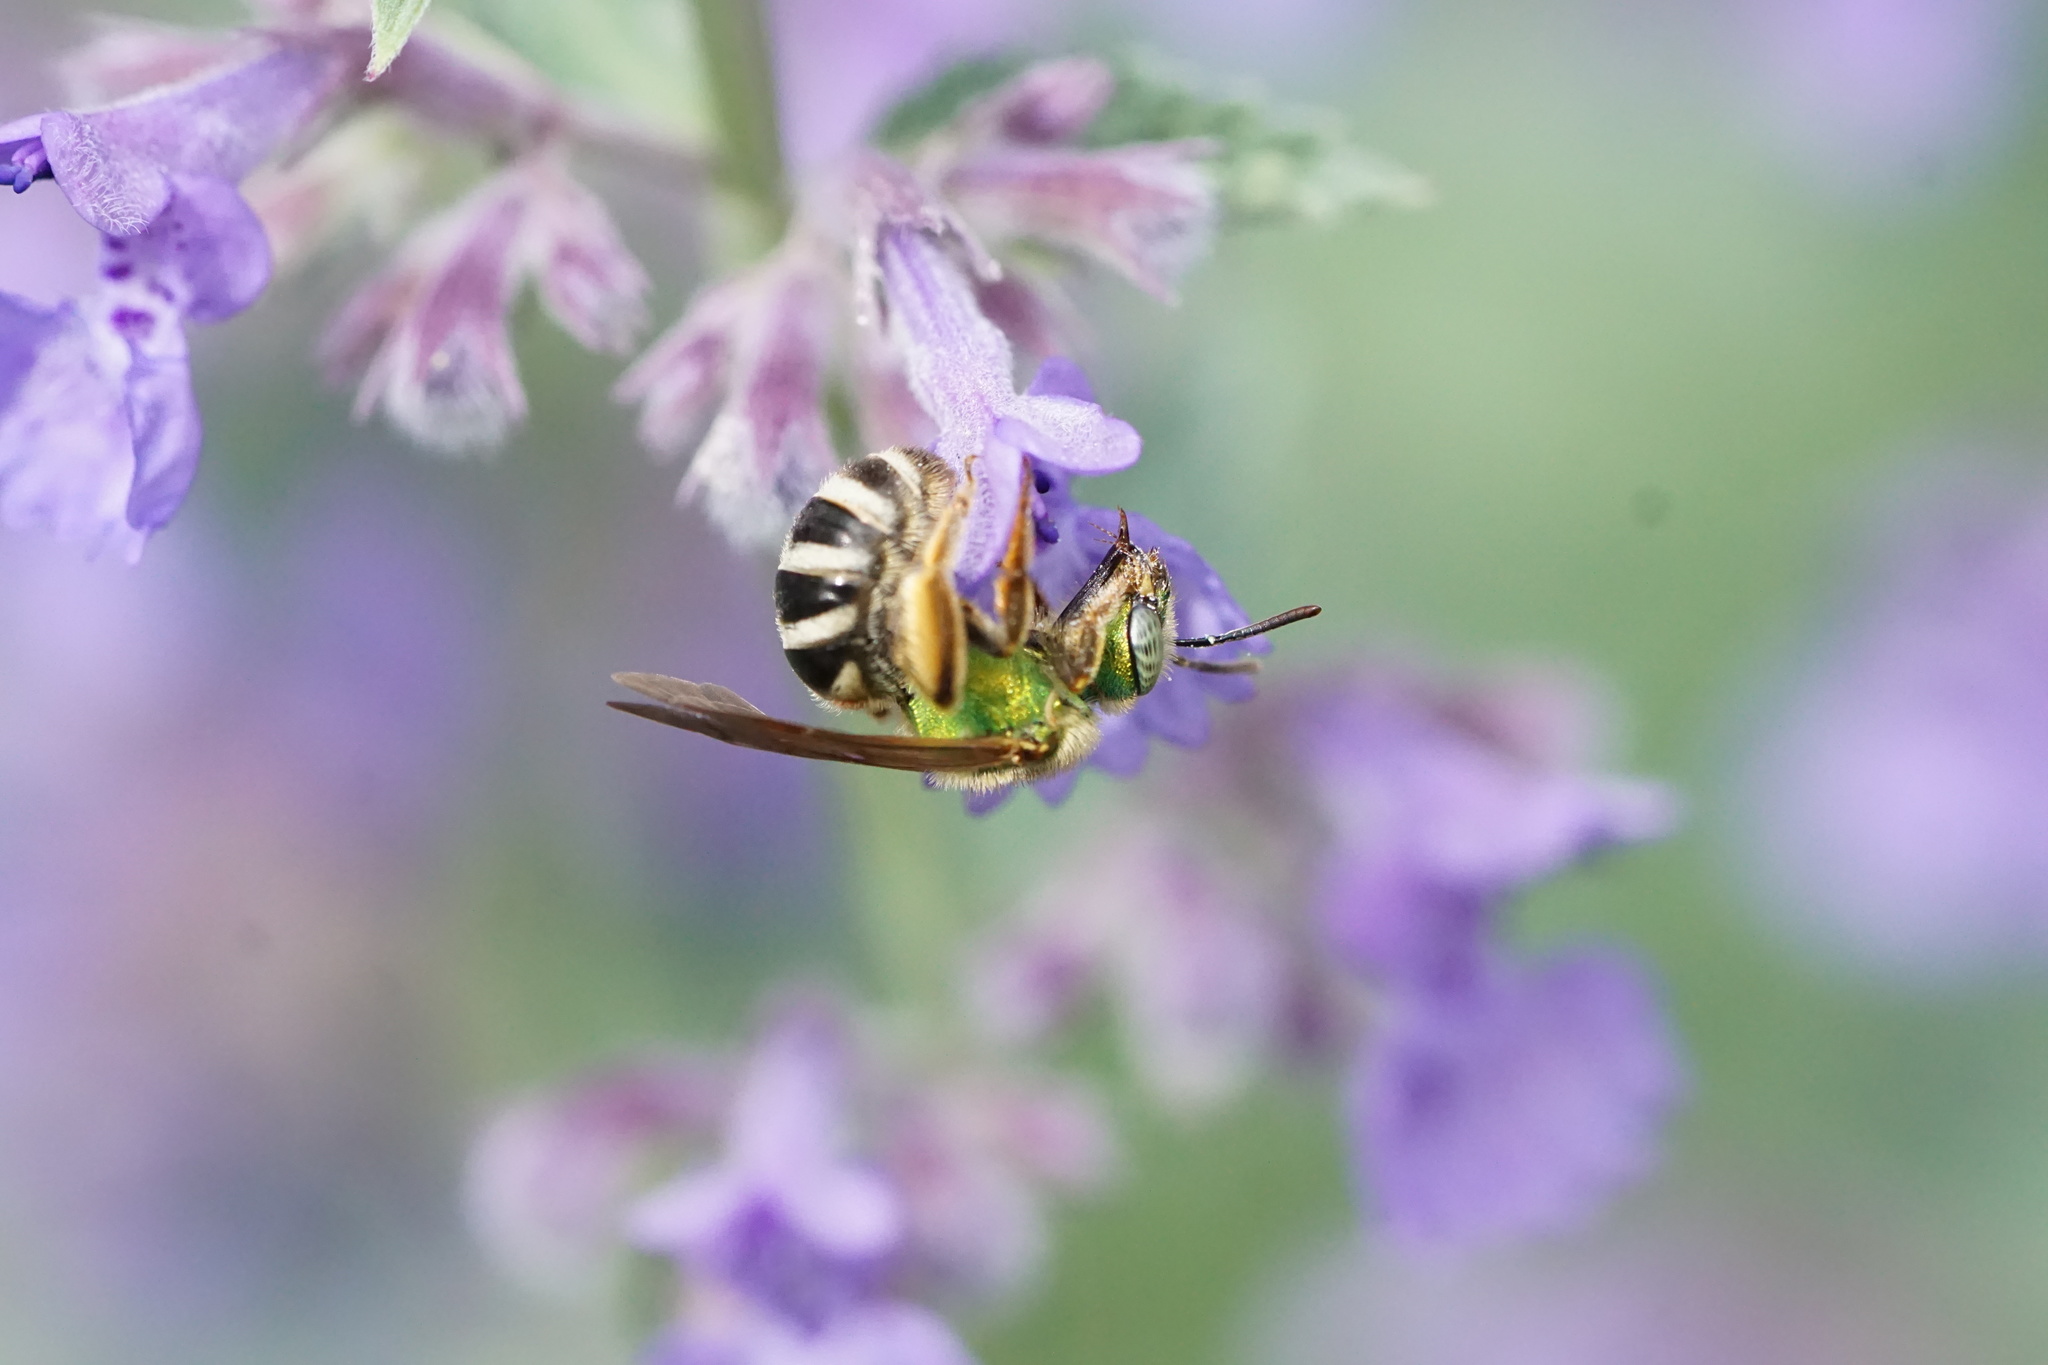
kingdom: Animalia
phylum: Arthropoda
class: Insecta
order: Hymenoptera
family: Halictidae
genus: Agapostemon
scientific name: Agapostemon virescens
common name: Bicolored striped sweat bee
